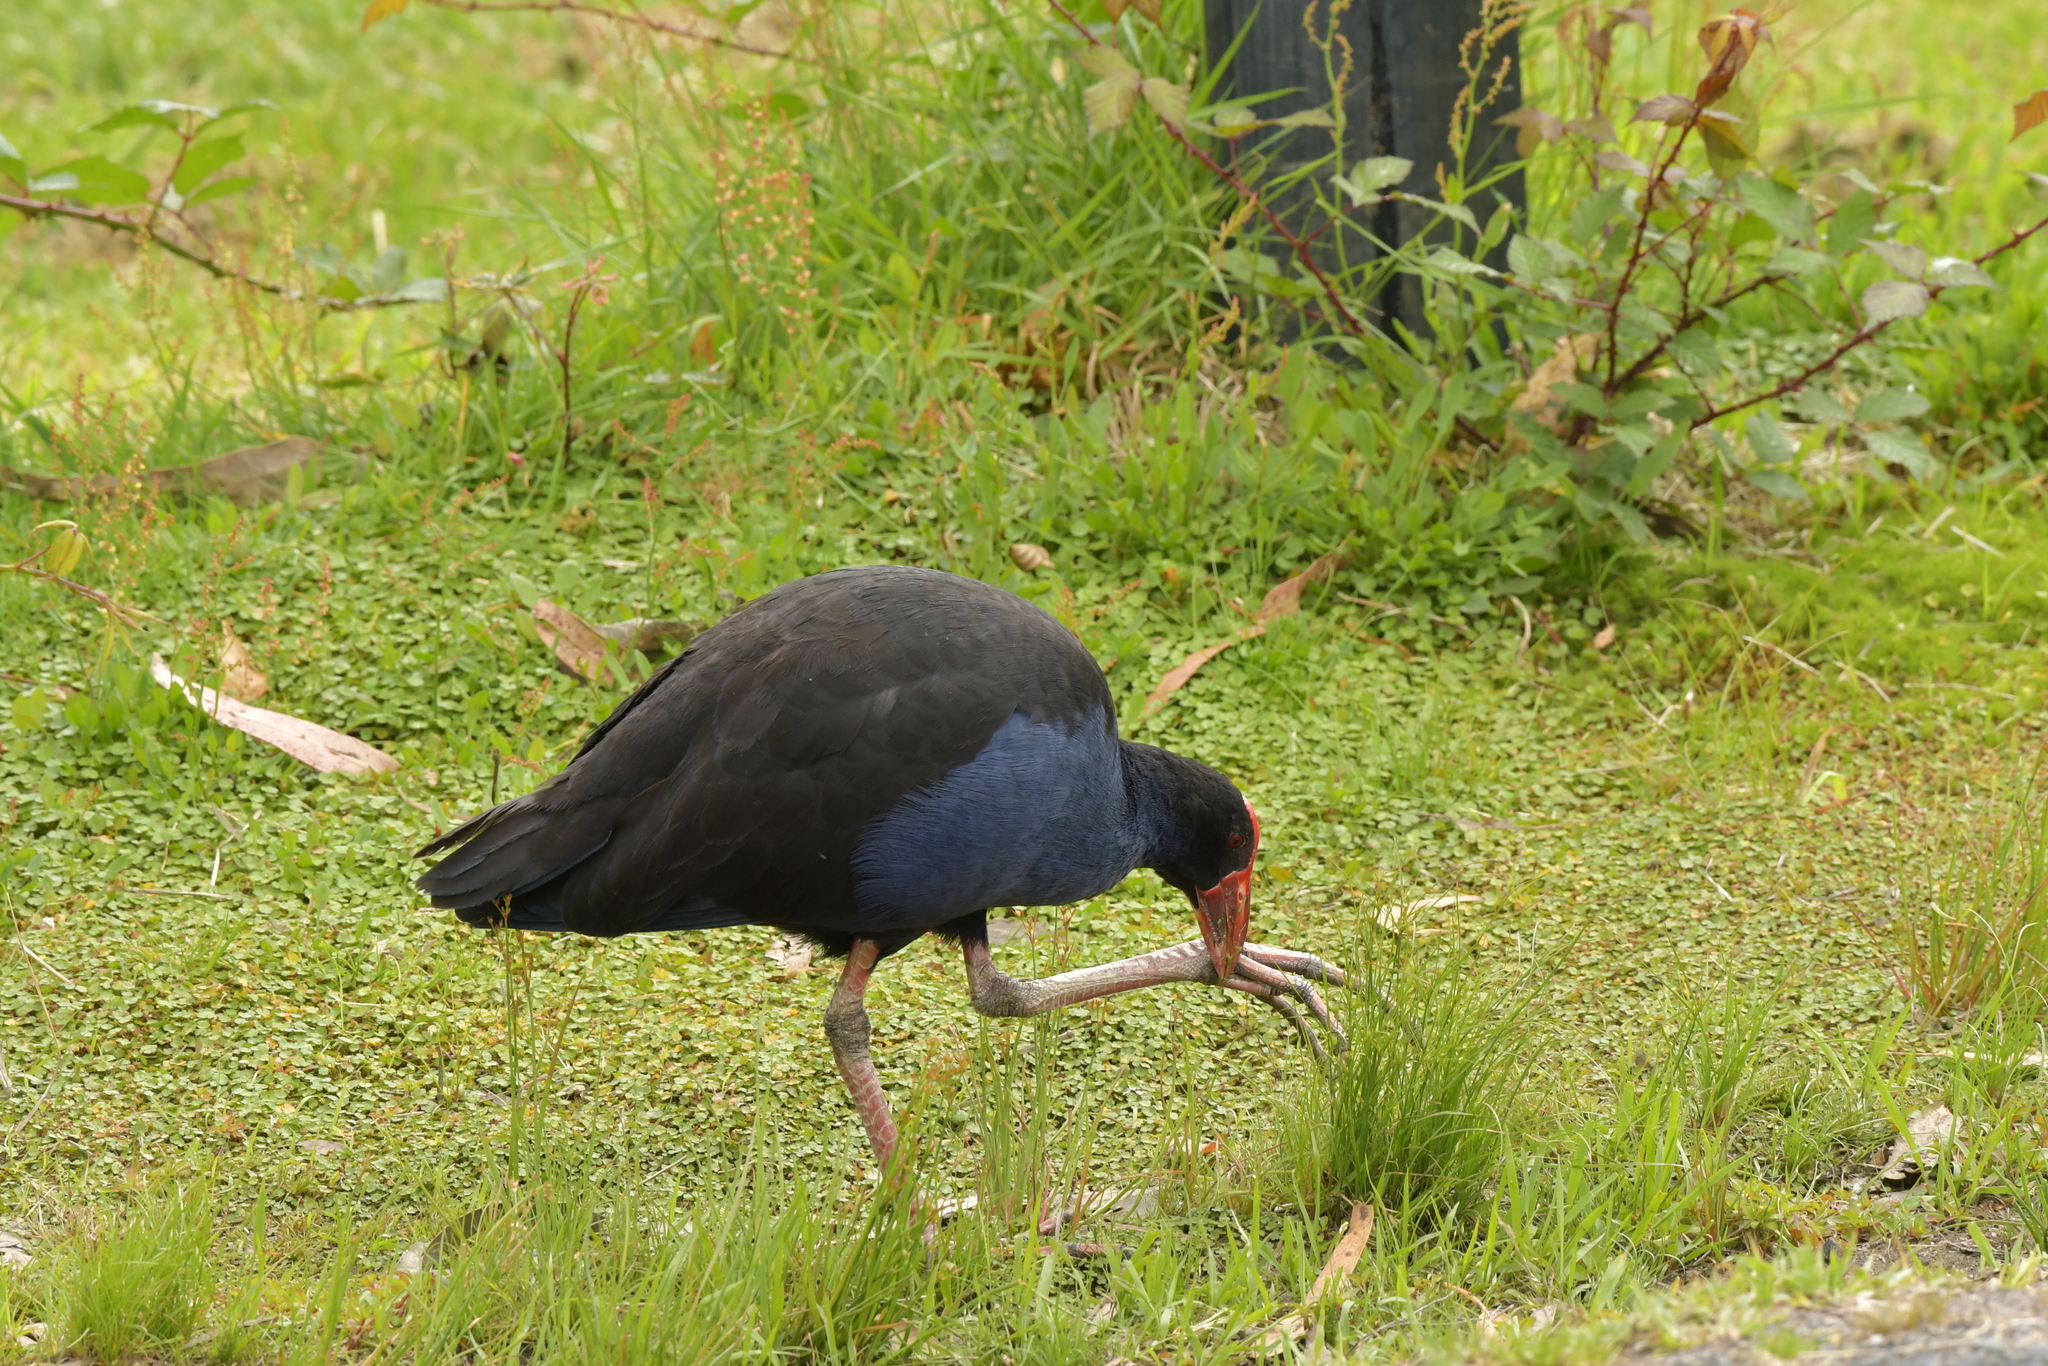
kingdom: Animalia
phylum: Chordata
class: Aves
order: Gruiformes
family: Rallidae
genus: Porphyrio
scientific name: Porphyrio melanotus
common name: Australasian swamphen
